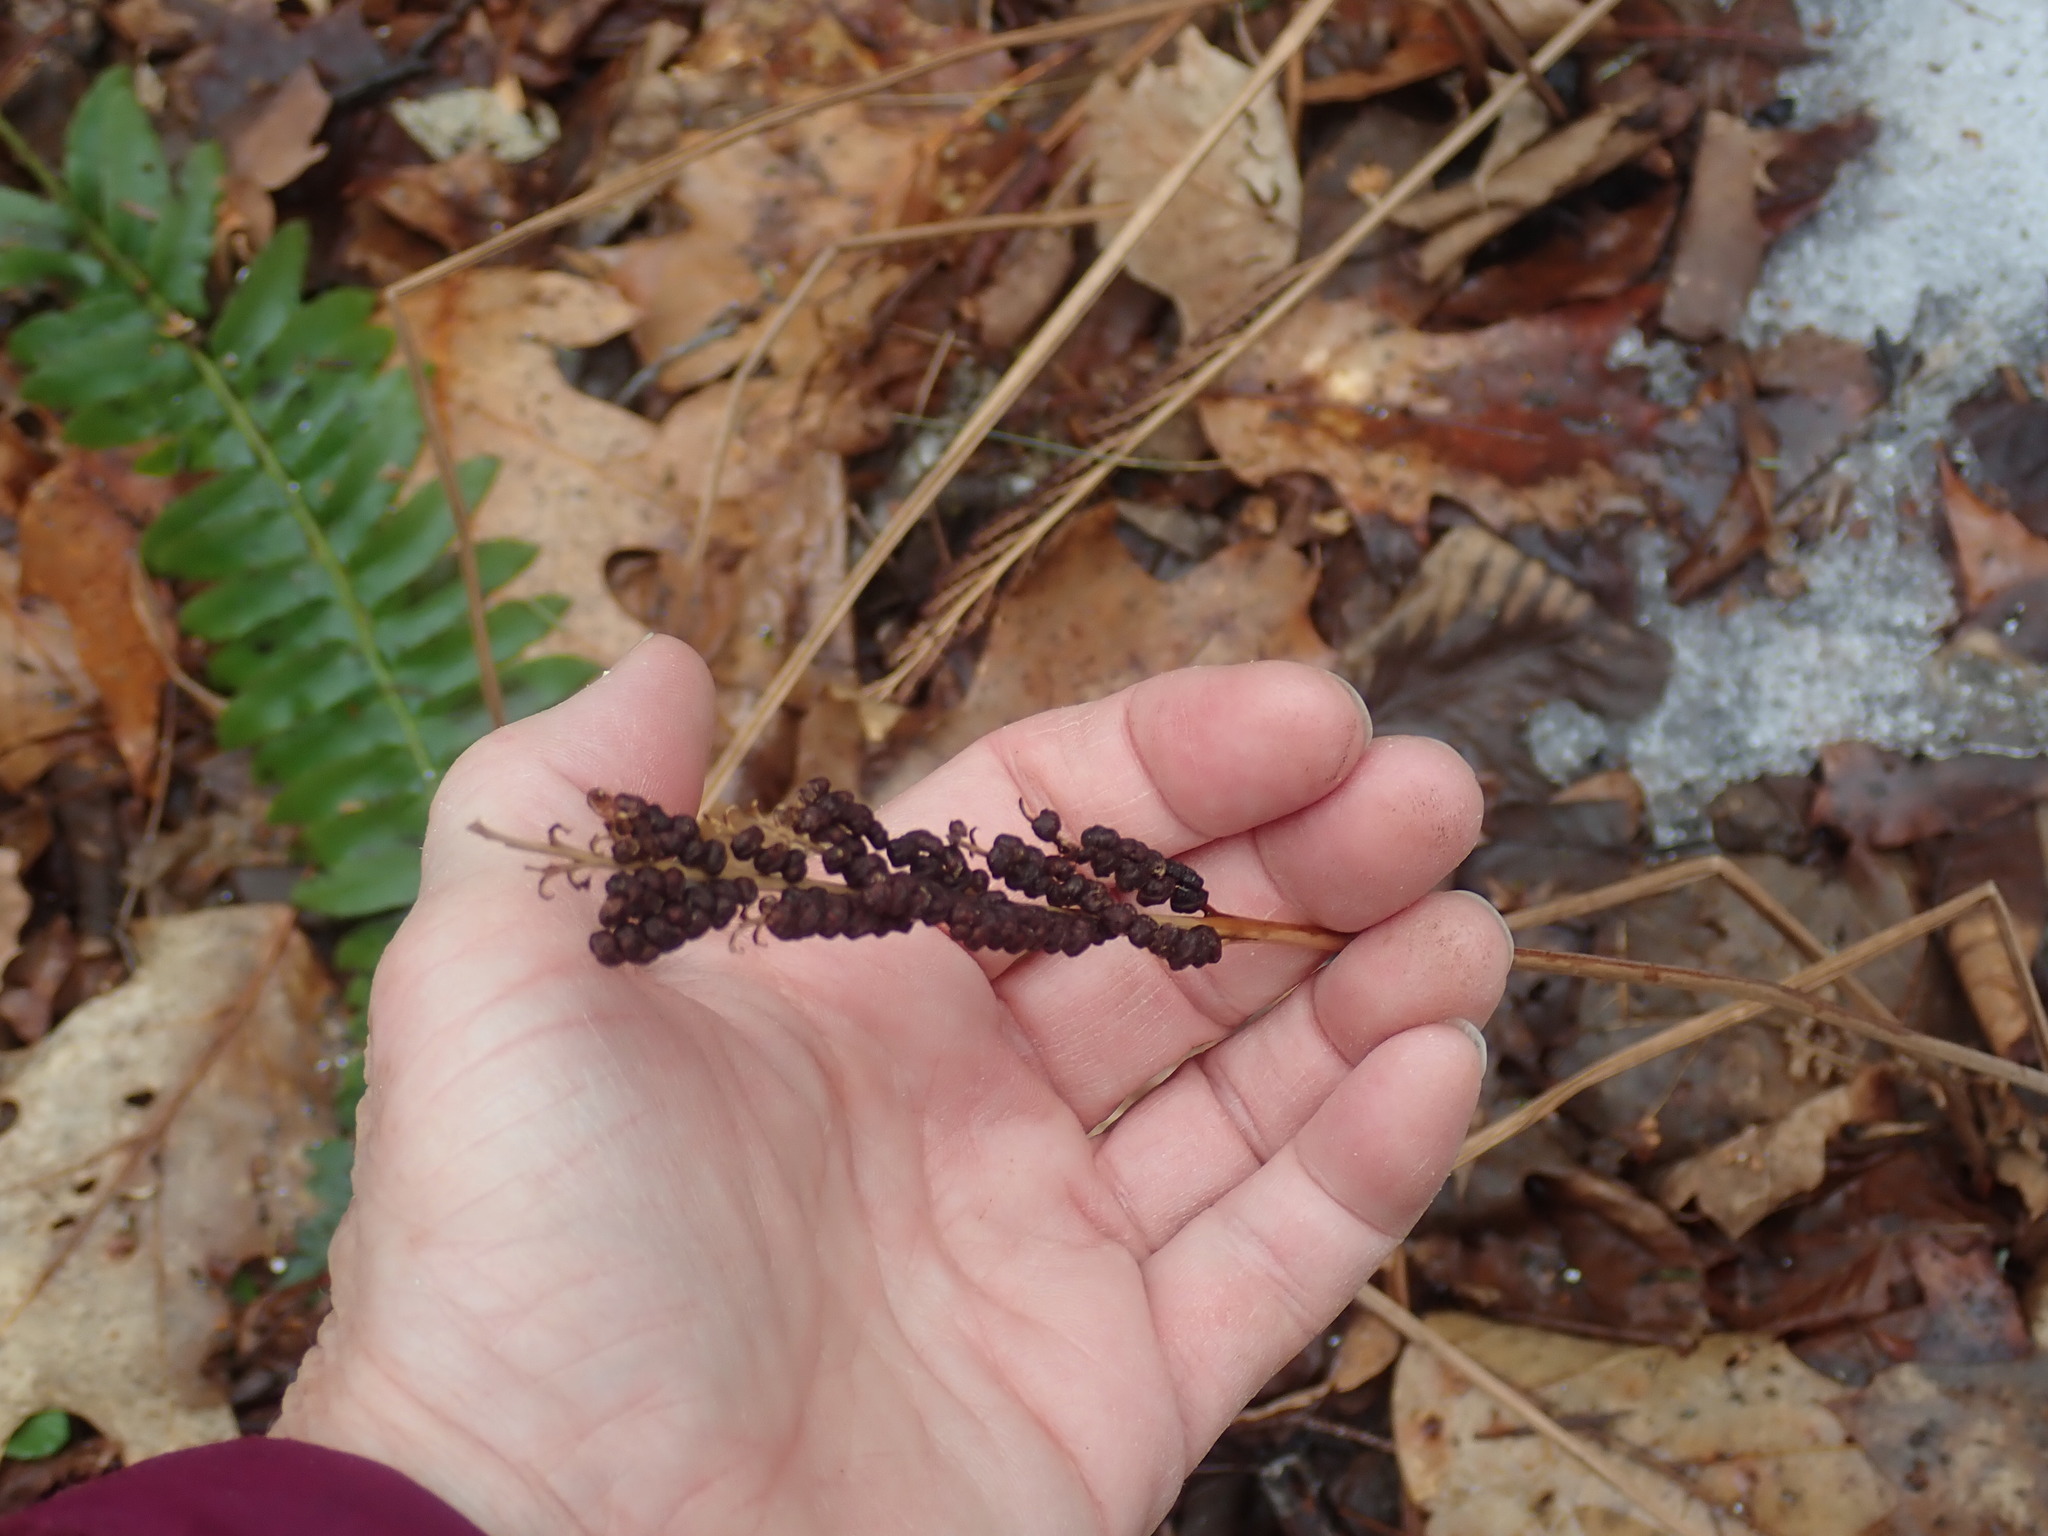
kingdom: Plantae
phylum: Tracheophyta
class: Polypodiopsida
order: Polypodiales
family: Onocleaceae
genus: Onoclea
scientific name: Onoclea sensibilis
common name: Sensitive fern
